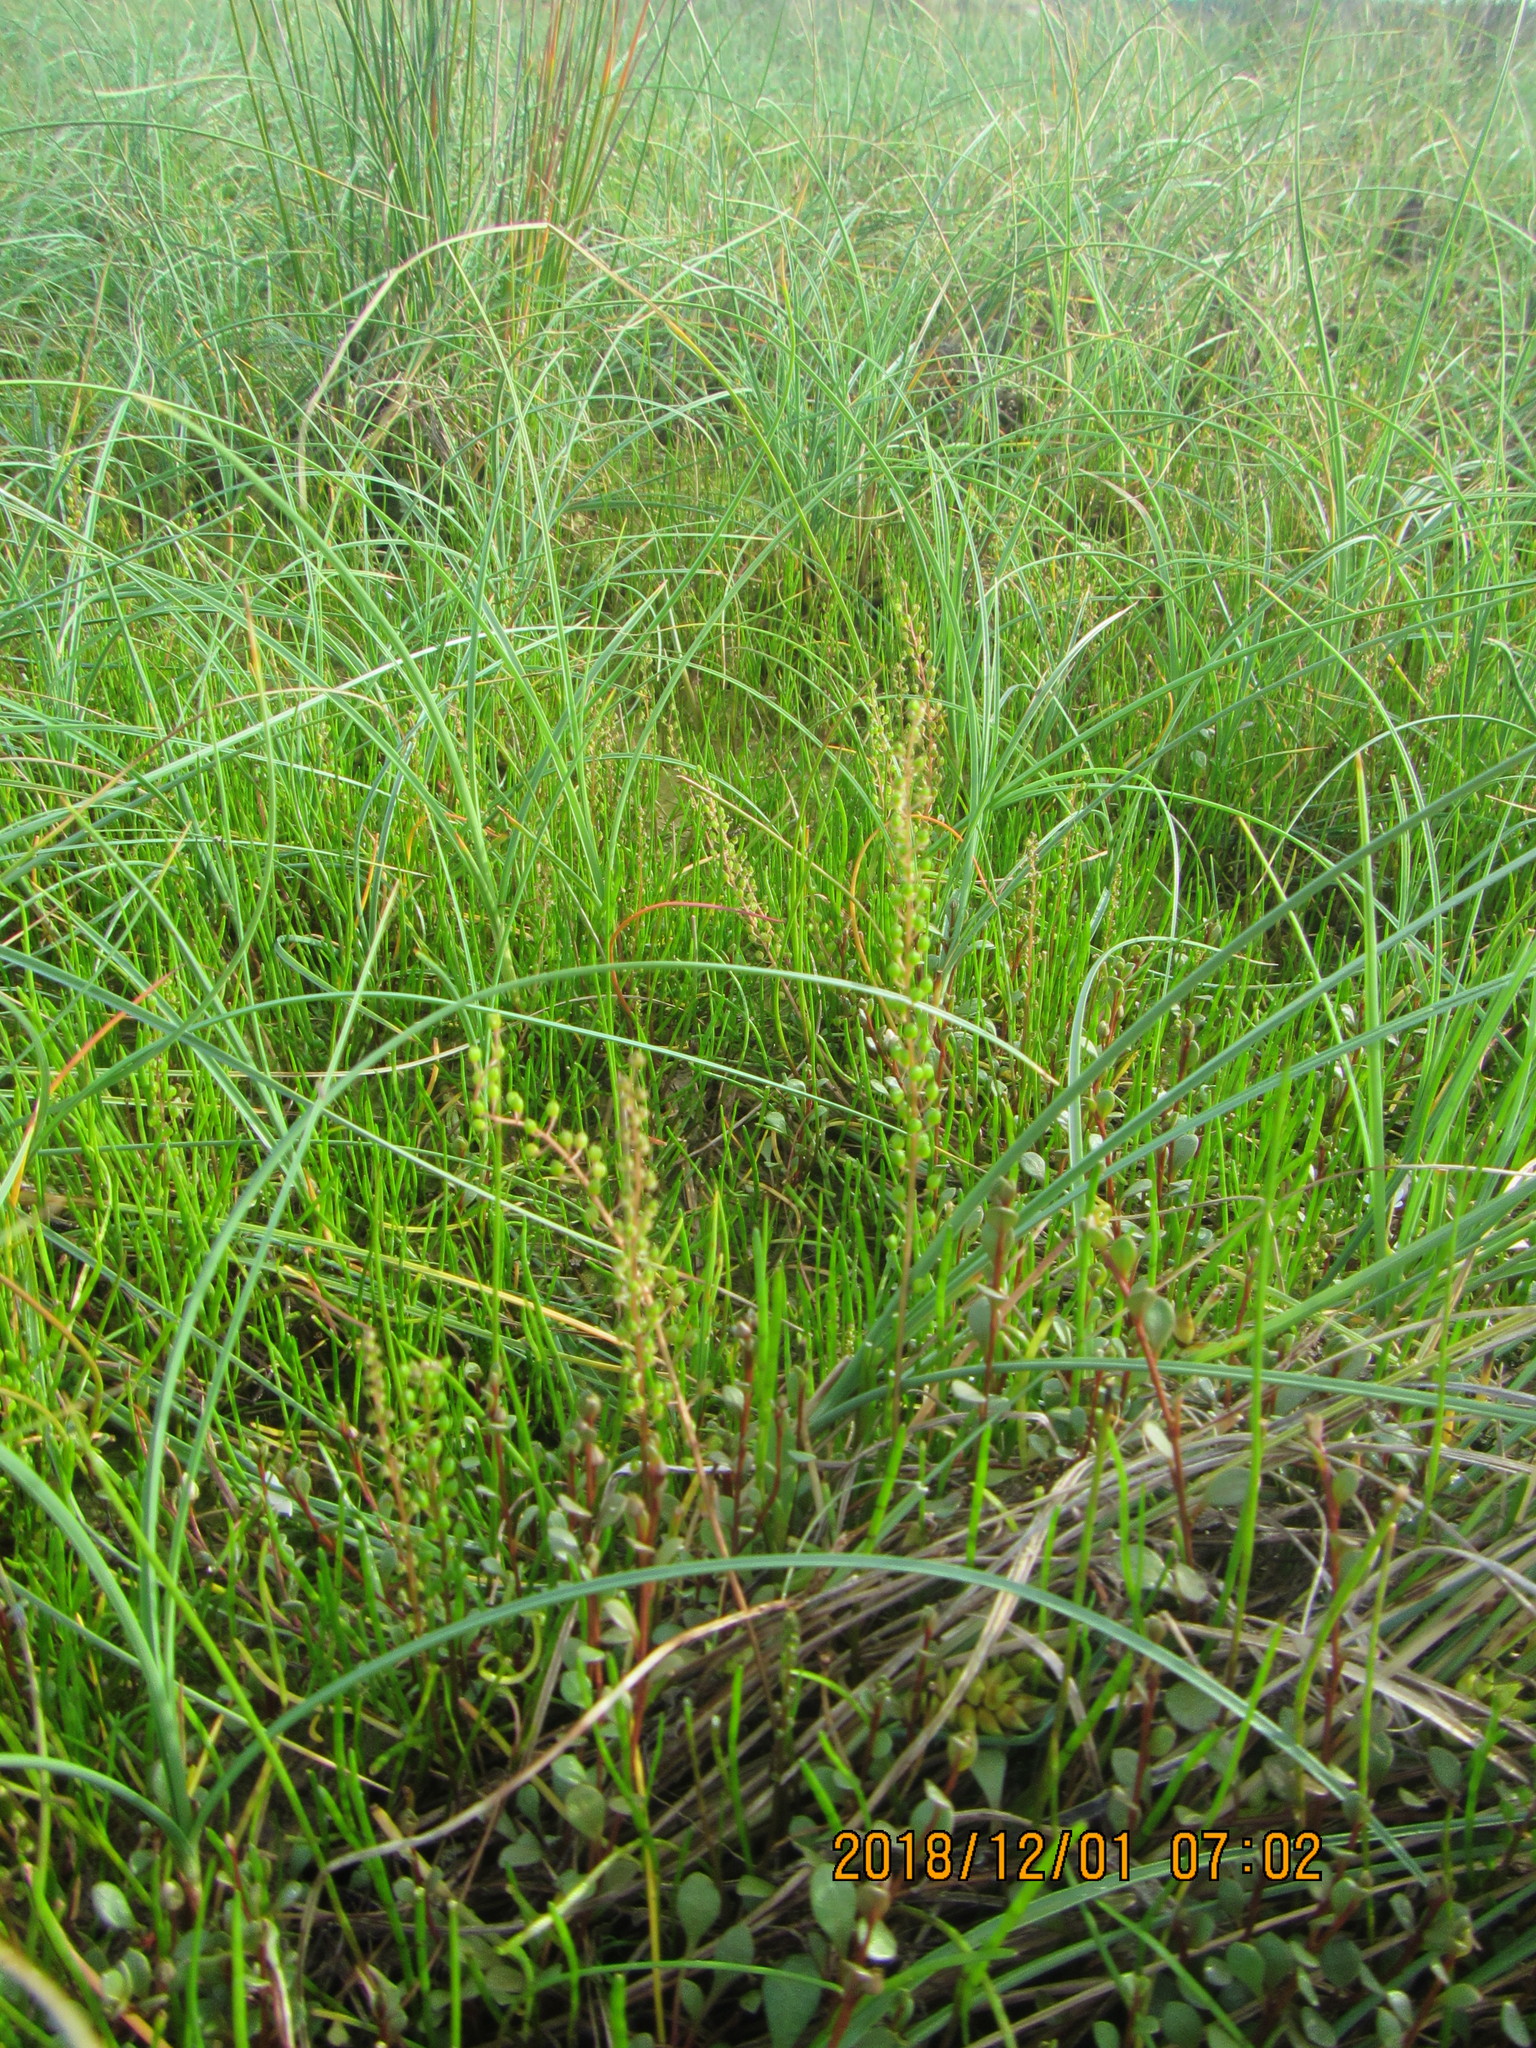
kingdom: Plantae
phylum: Tracheophyta
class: Liliopsida
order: Alismatales
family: Juncaginaceae
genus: Triglochin
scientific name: Triglochin striata
